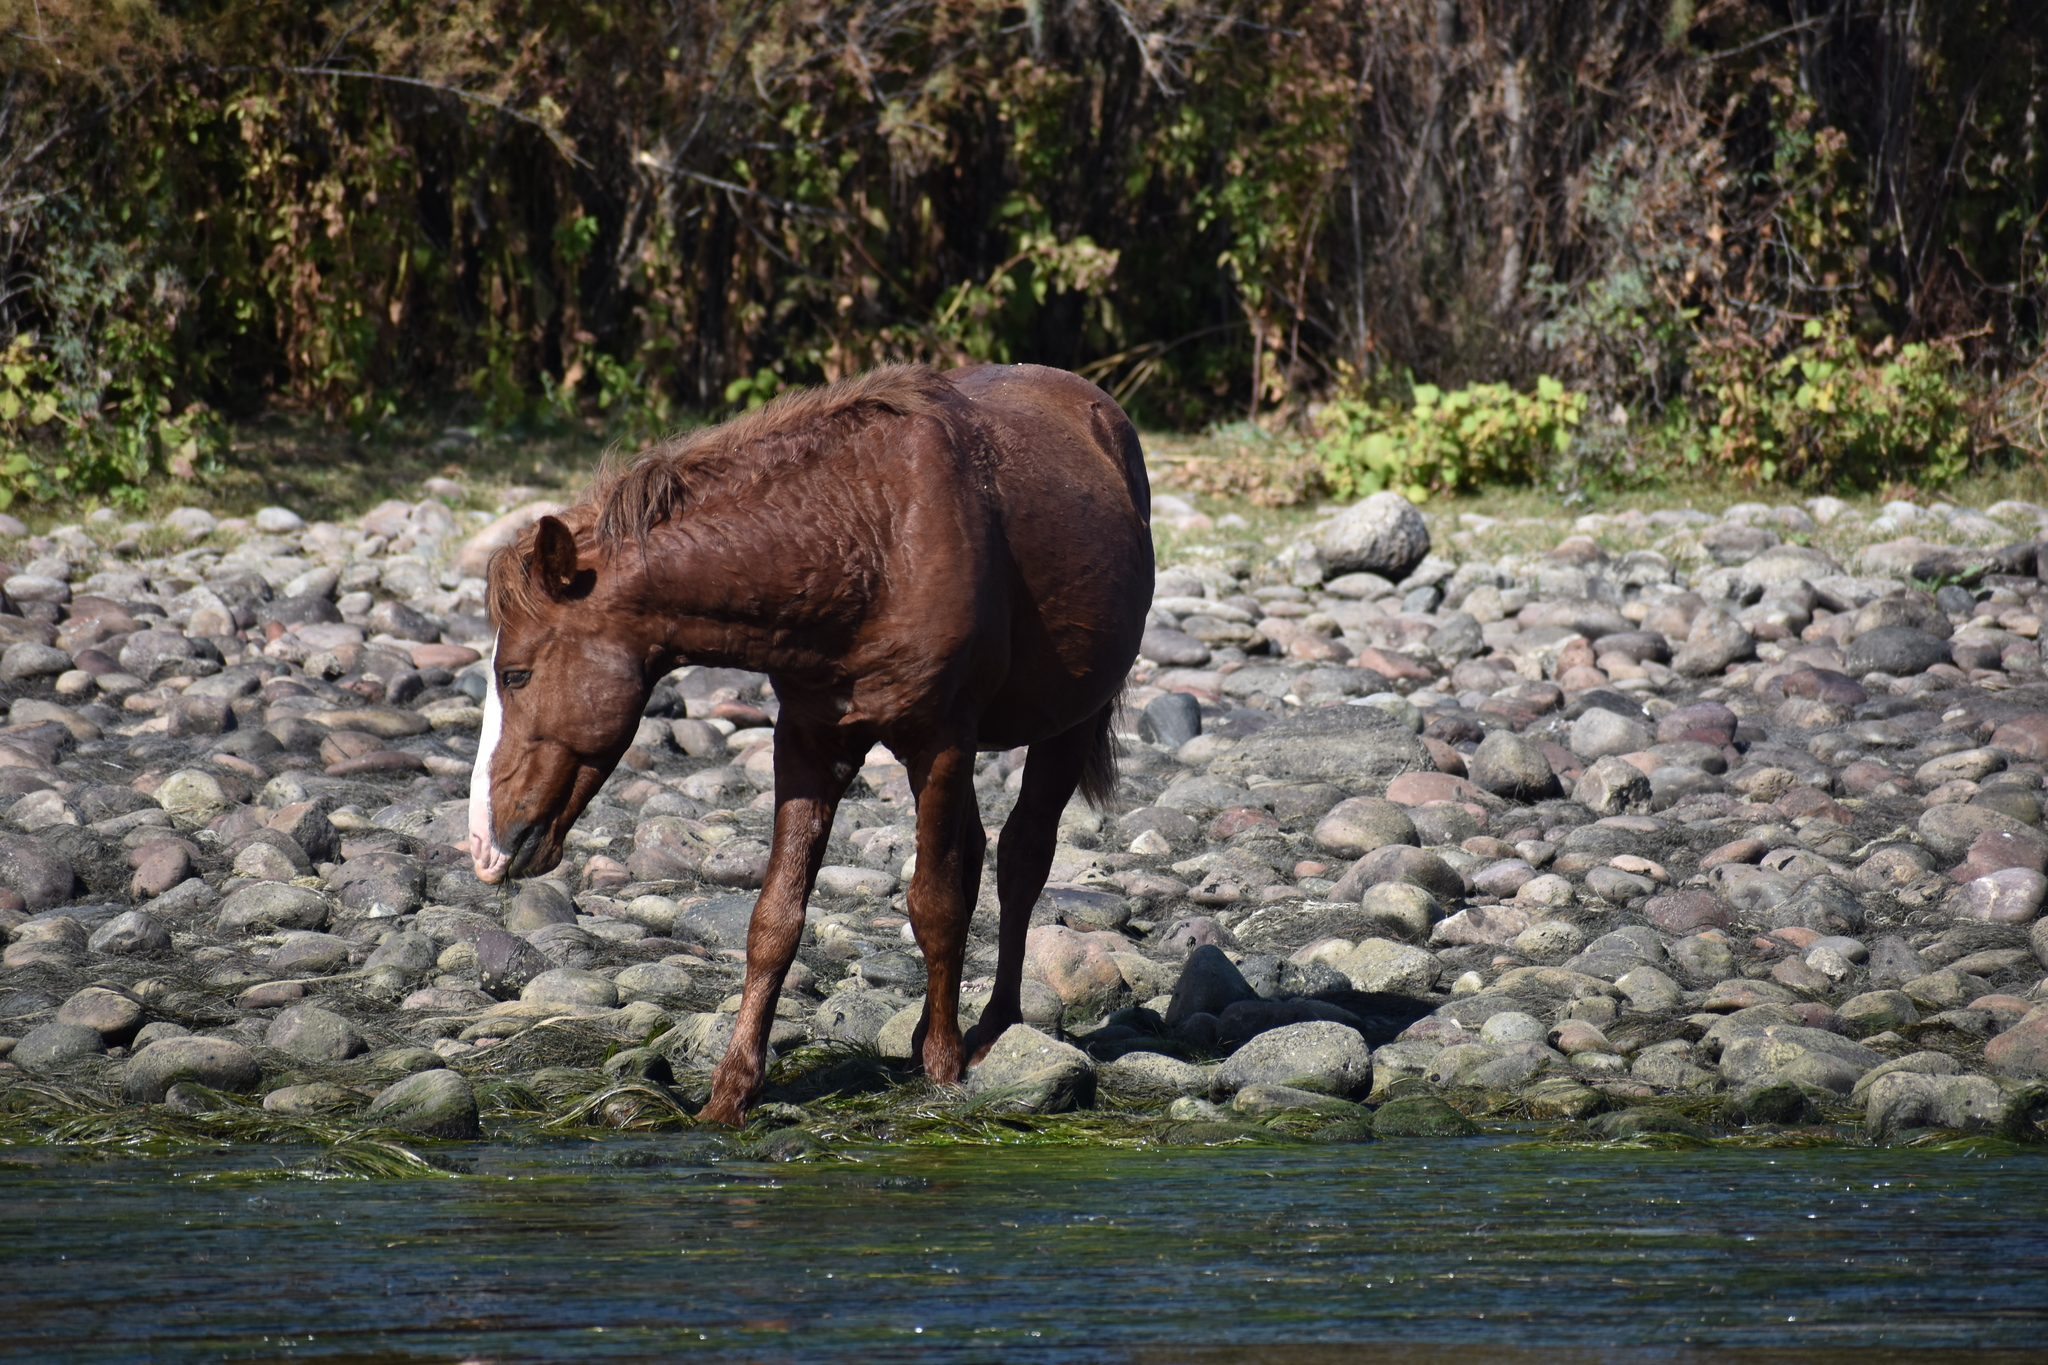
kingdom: Animalia
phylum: Chordata
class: Mammalia
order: Perissodactyla
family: Equidae
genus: Equus
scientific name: Equus caballus
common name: Horse
